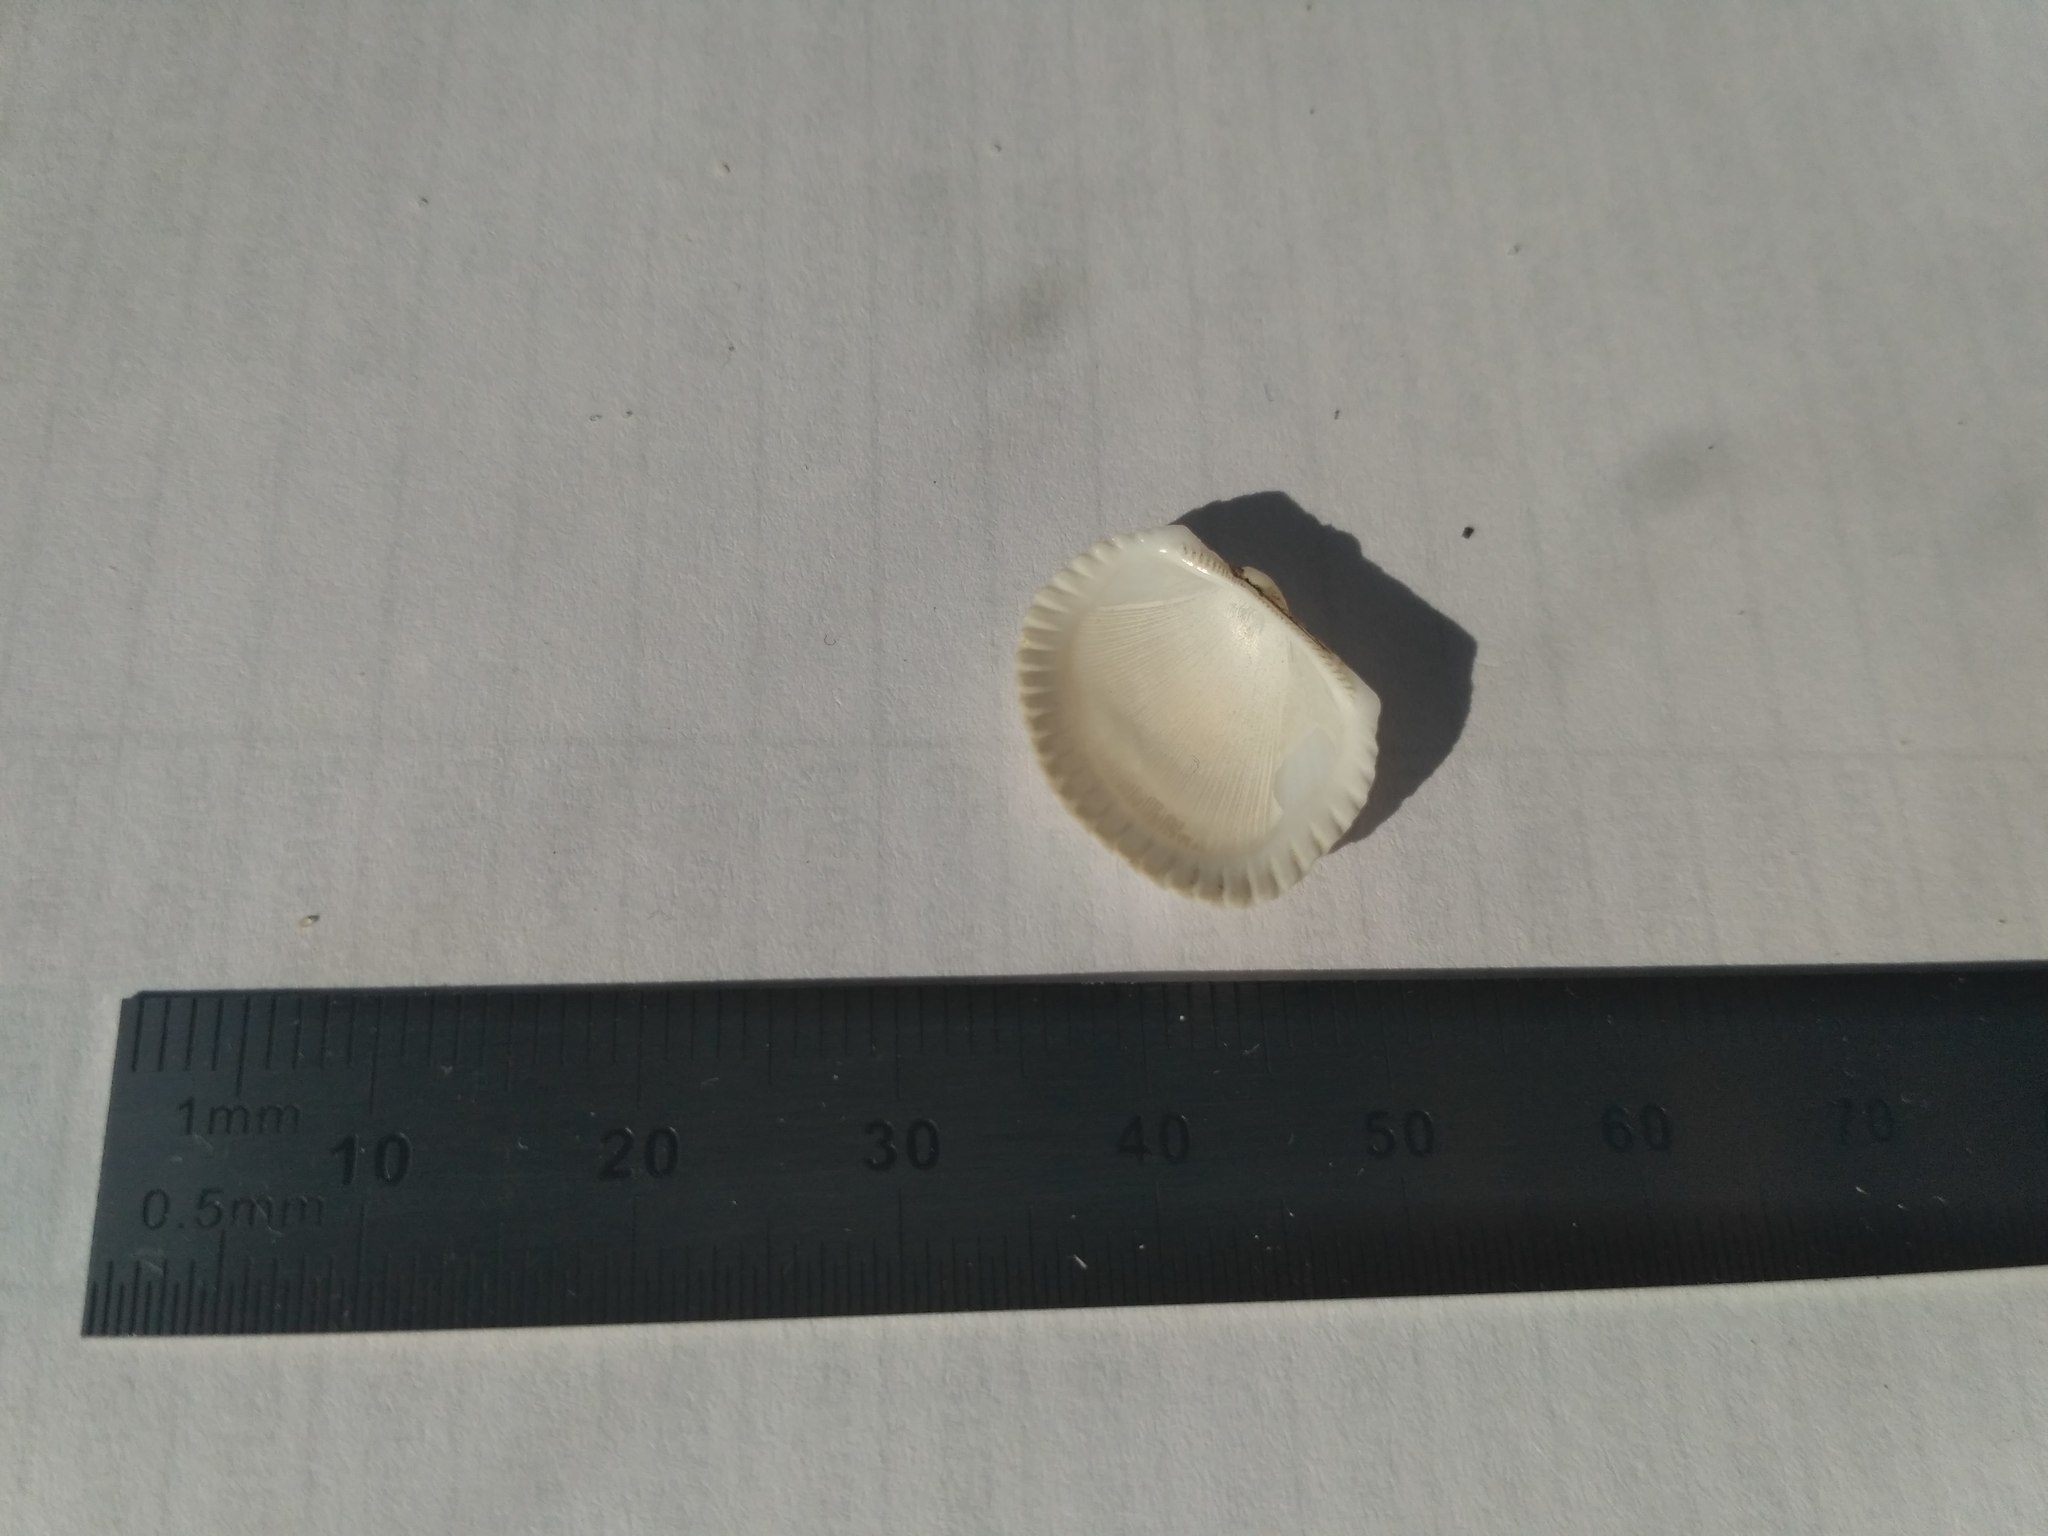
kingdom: Animalia
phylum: Mollusca
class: Bivalvia
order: Arcida
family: Arcidae
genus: Anadara
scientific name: Anadara kagoshimensis
